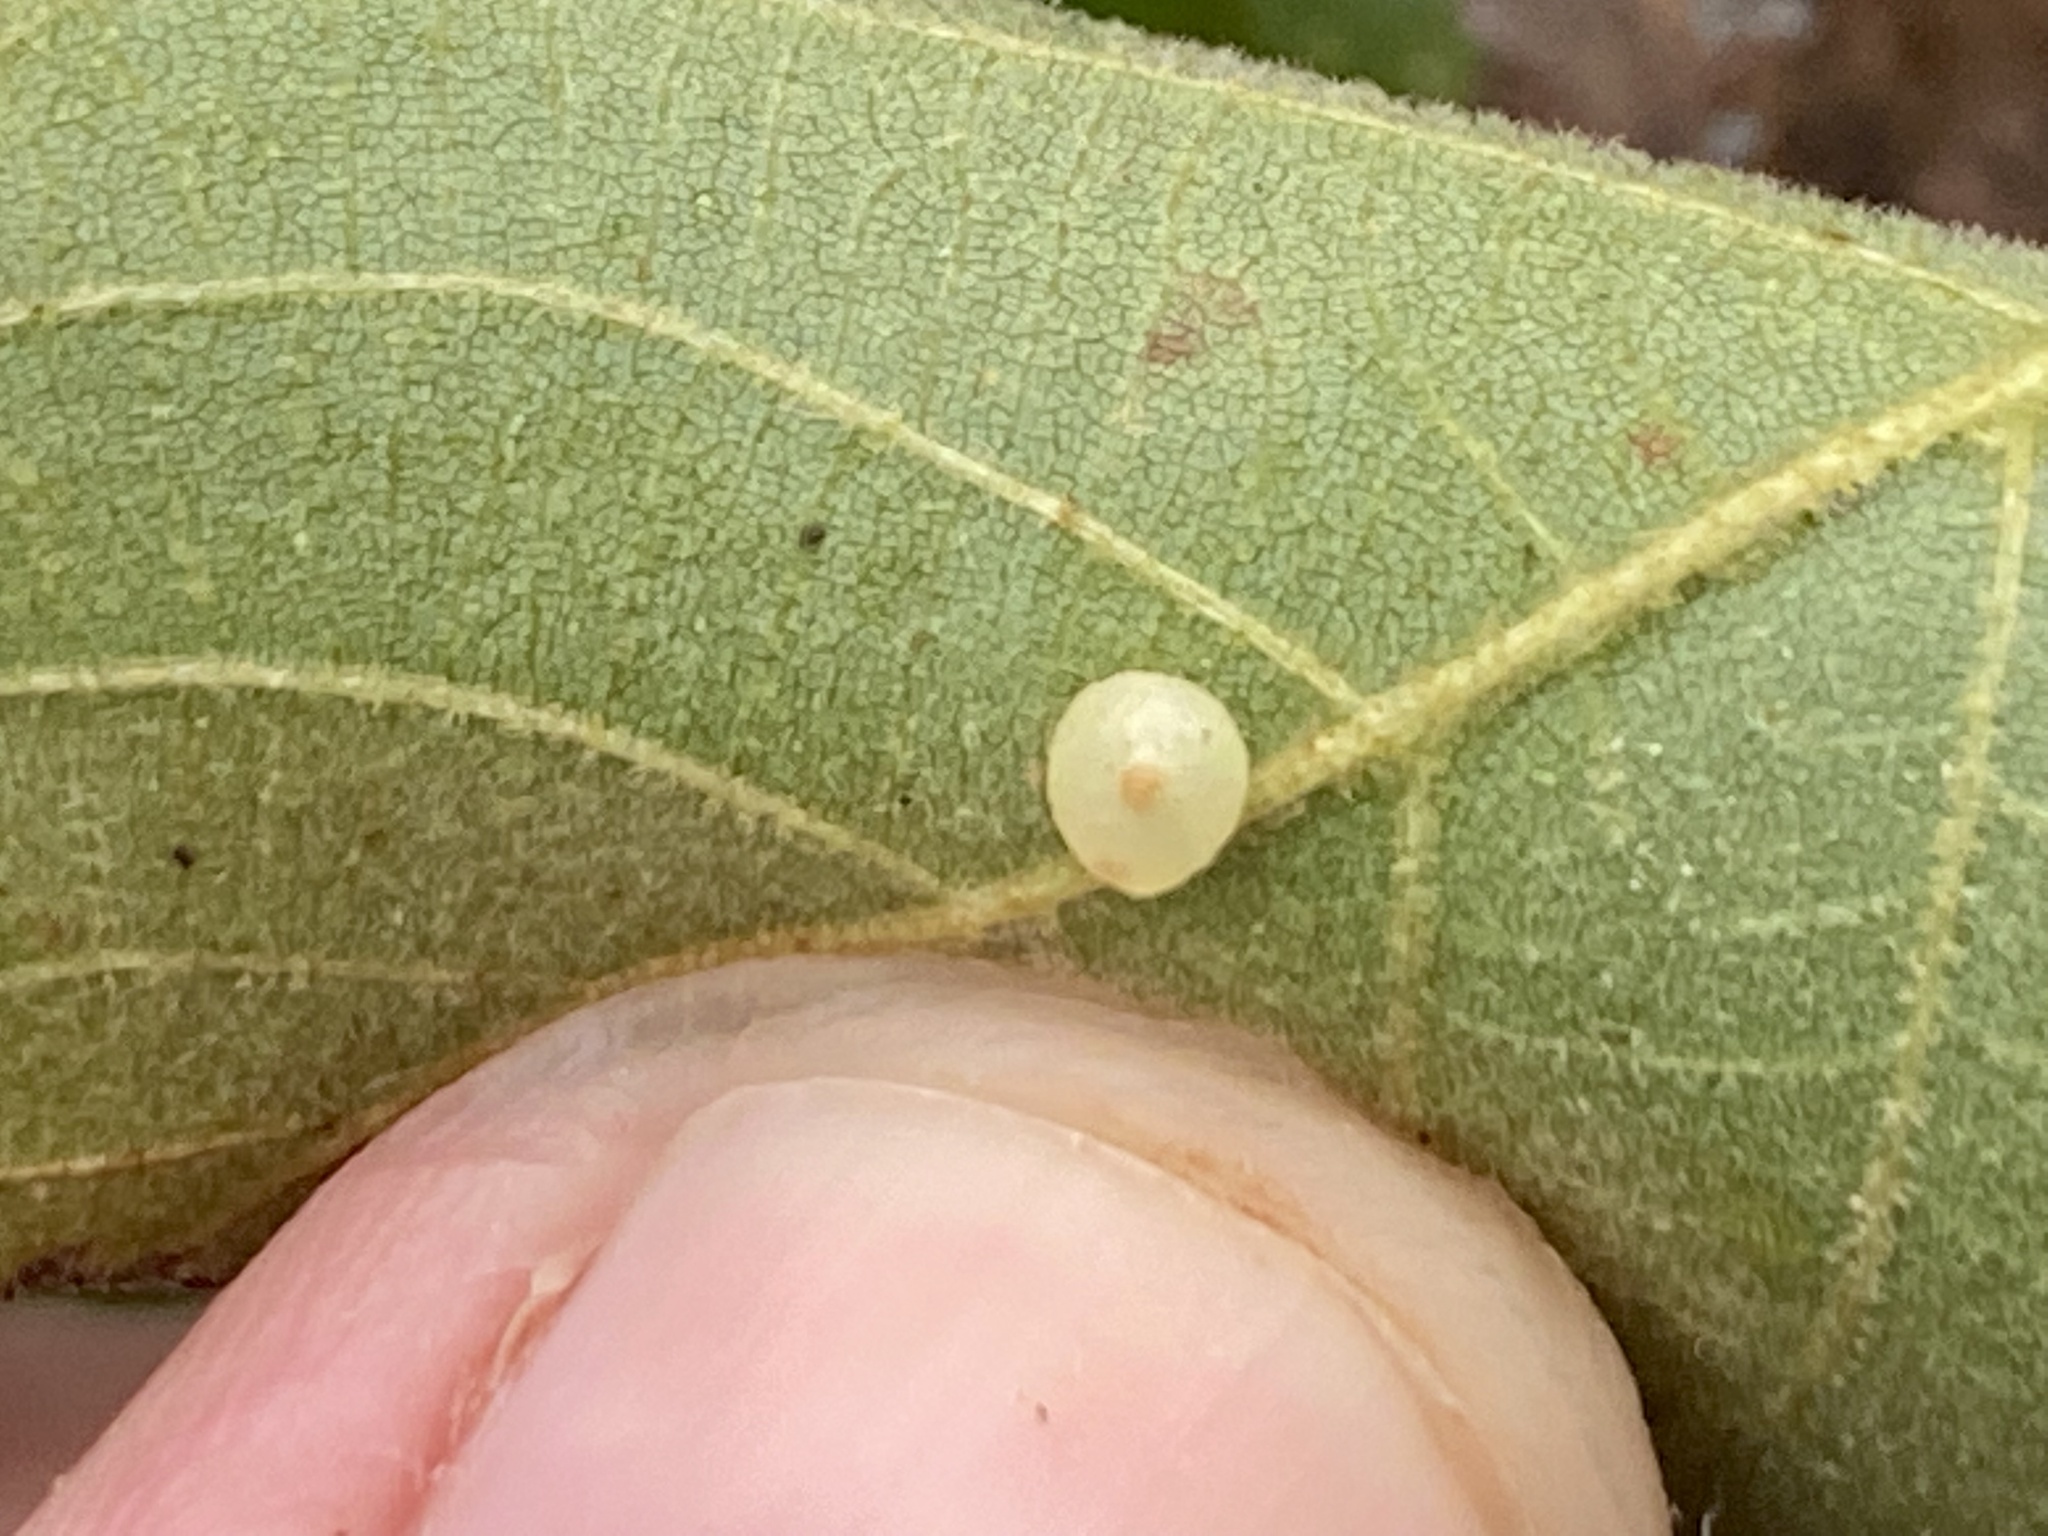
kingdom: Animalia
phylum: Arthropoda
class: Insecta
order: Diptera
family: Cecidomyiidae
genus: Caryomyia
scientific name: Caryomyia leviglobus
